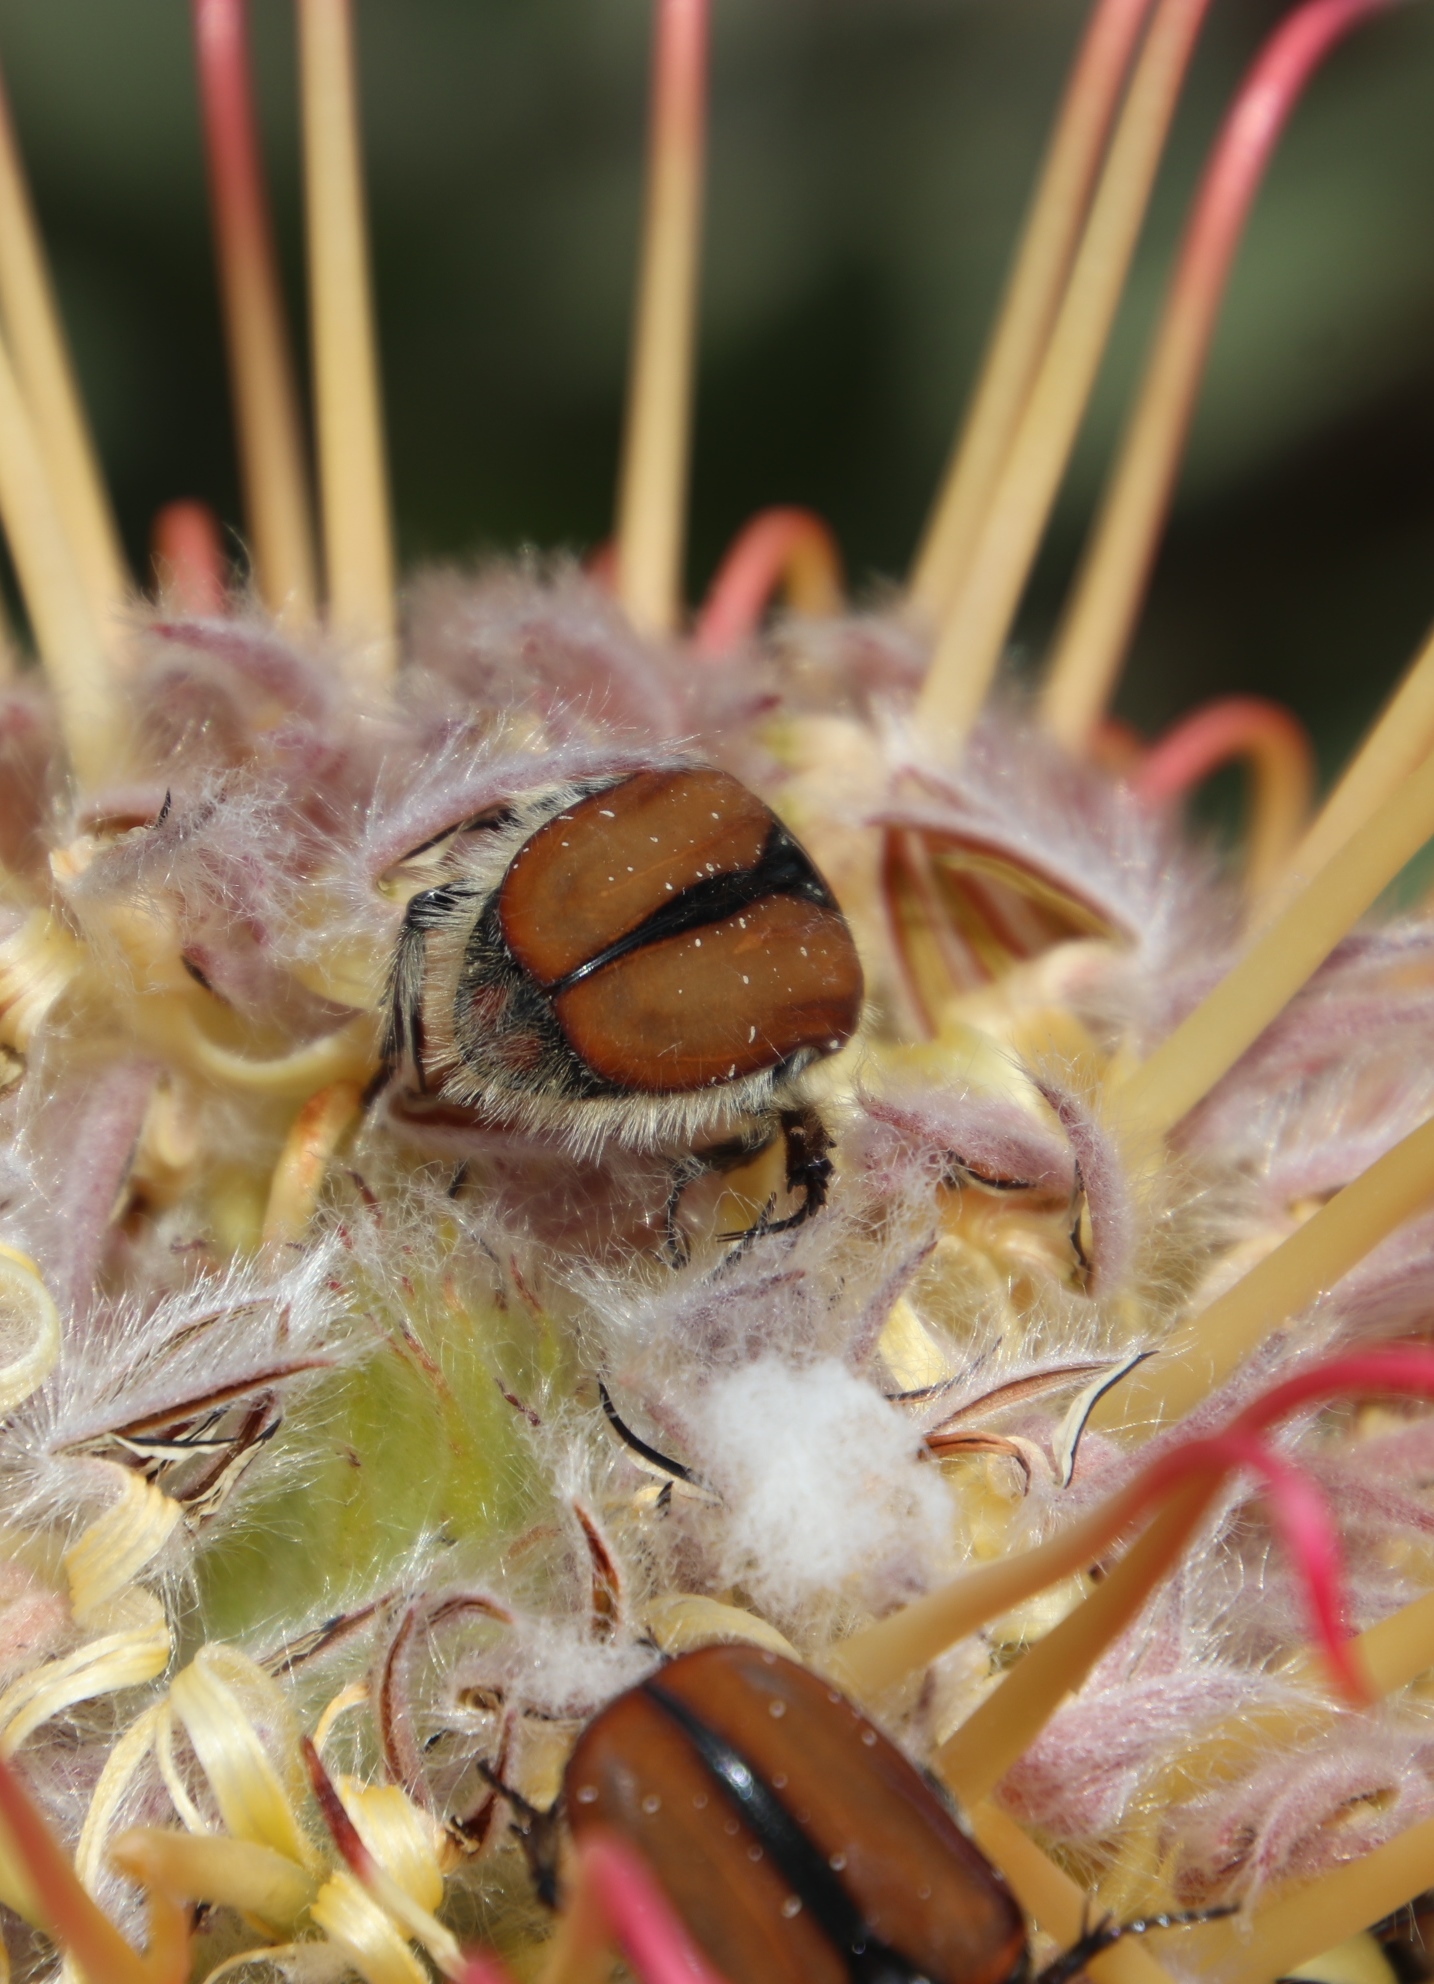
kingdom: Plantae
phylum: Tracheophyta
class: Magnoliopsida
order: Proteales
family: Proteaceae
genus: Leucospermum
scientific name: Leucospermum gueinzii
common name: Kloof fountain pincushion
